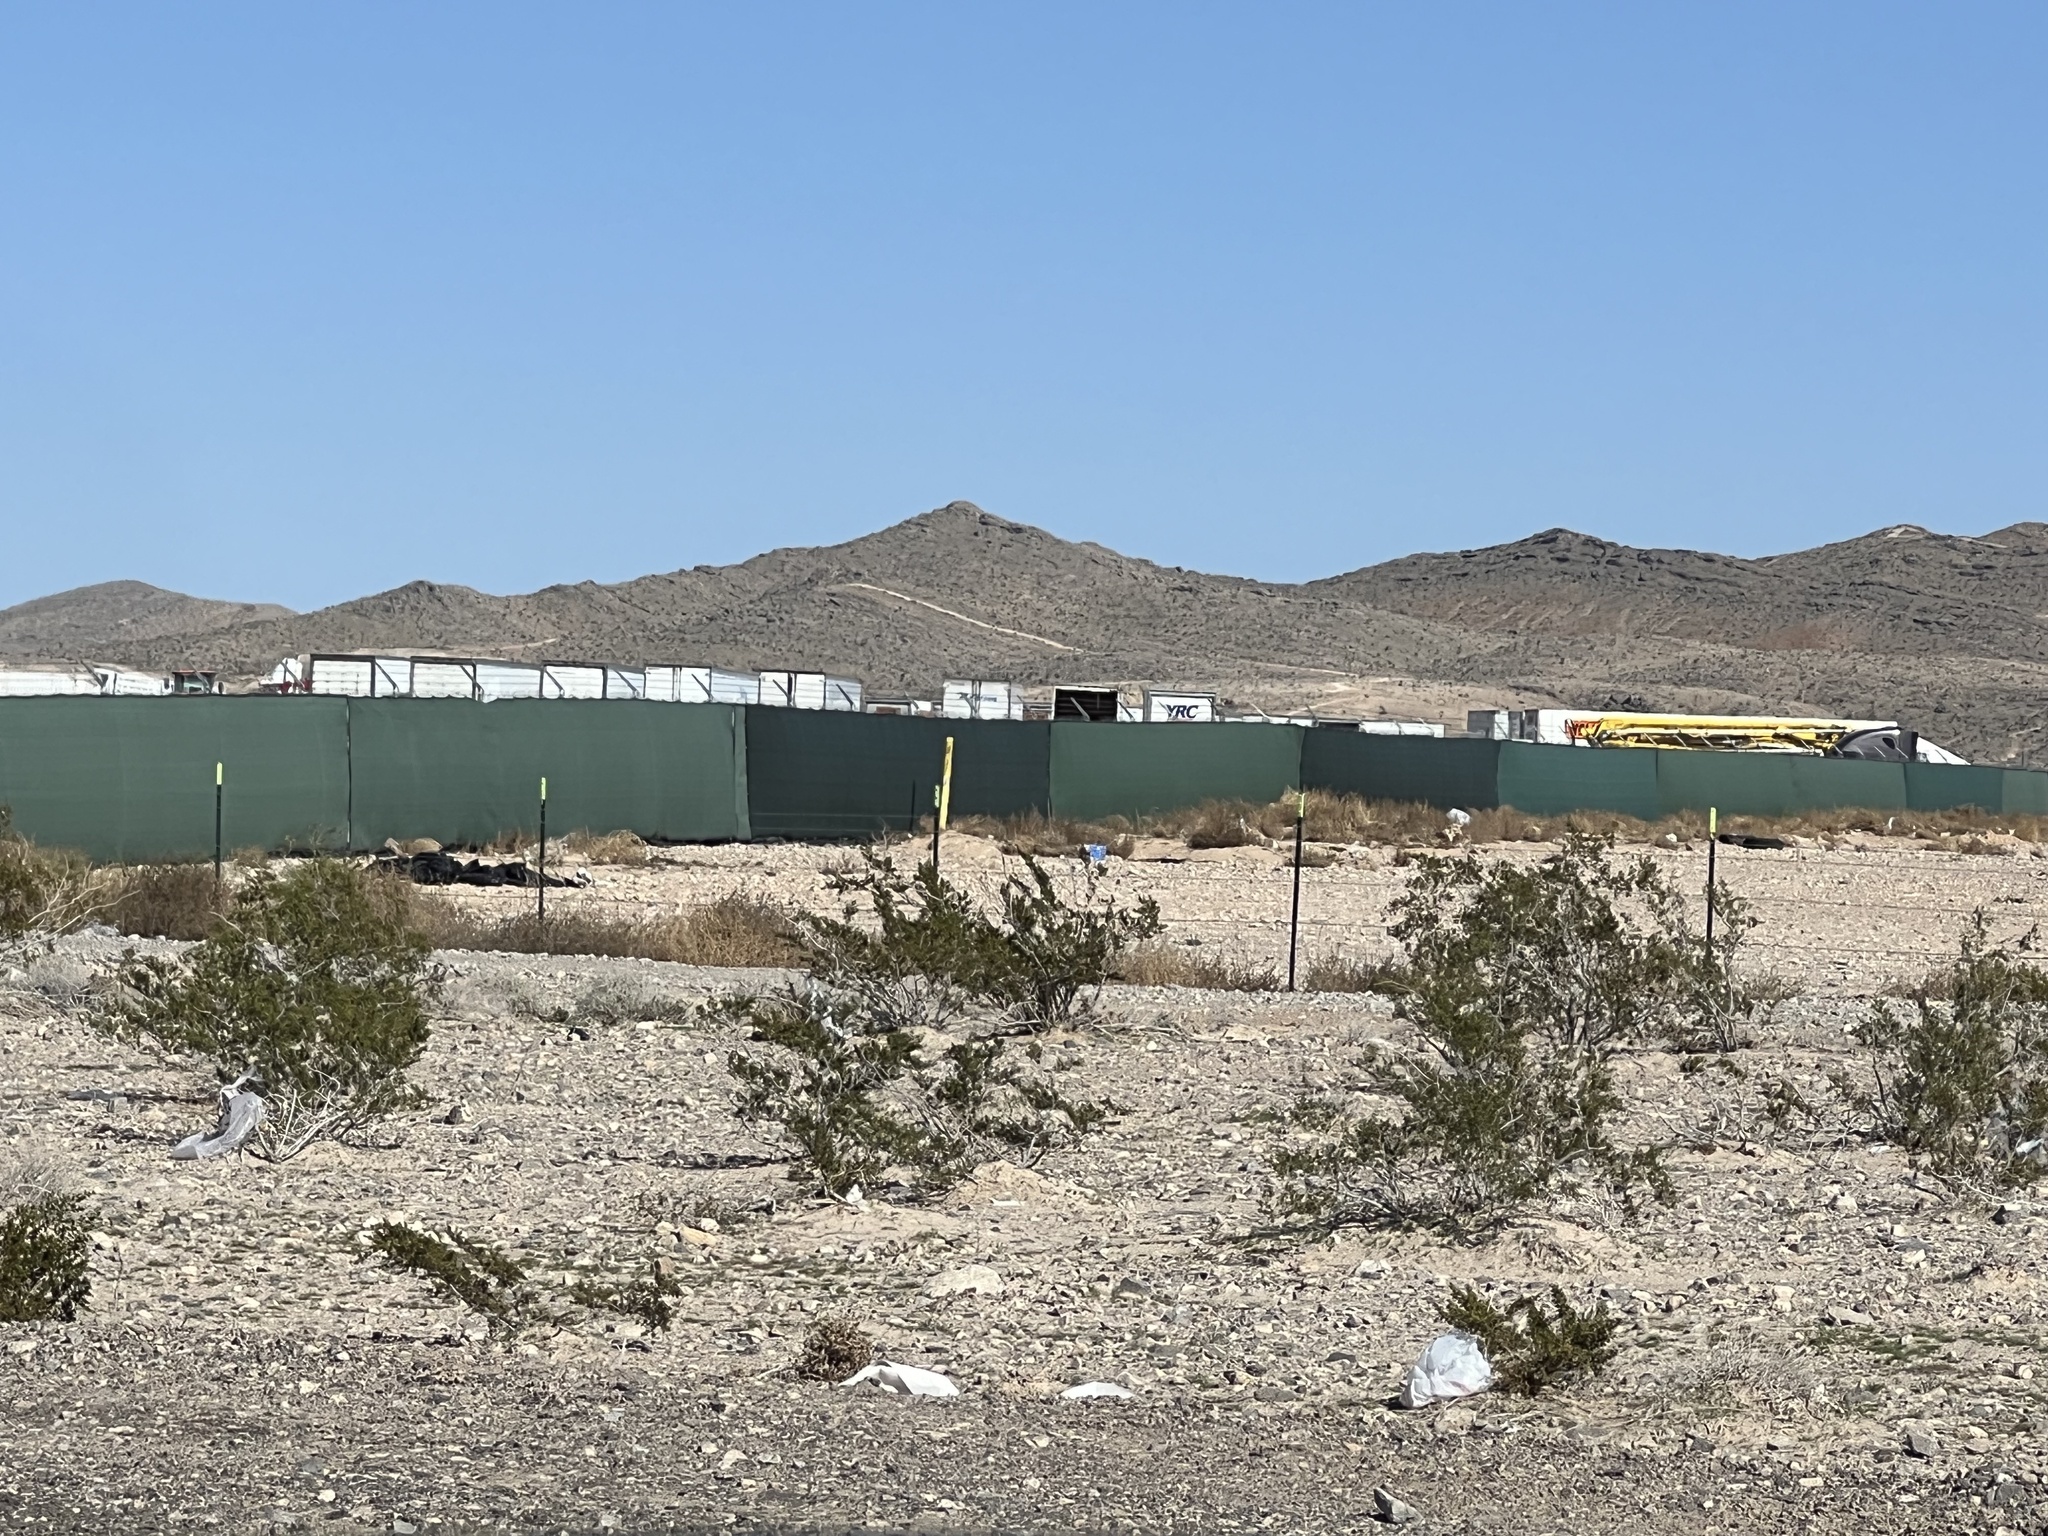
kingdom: Plantae
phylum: Tracheophyta
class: Magnoliopsida
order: Zygophyllales
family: Zygophyllaceae
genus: Larrea
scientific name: Larrea tridentata
